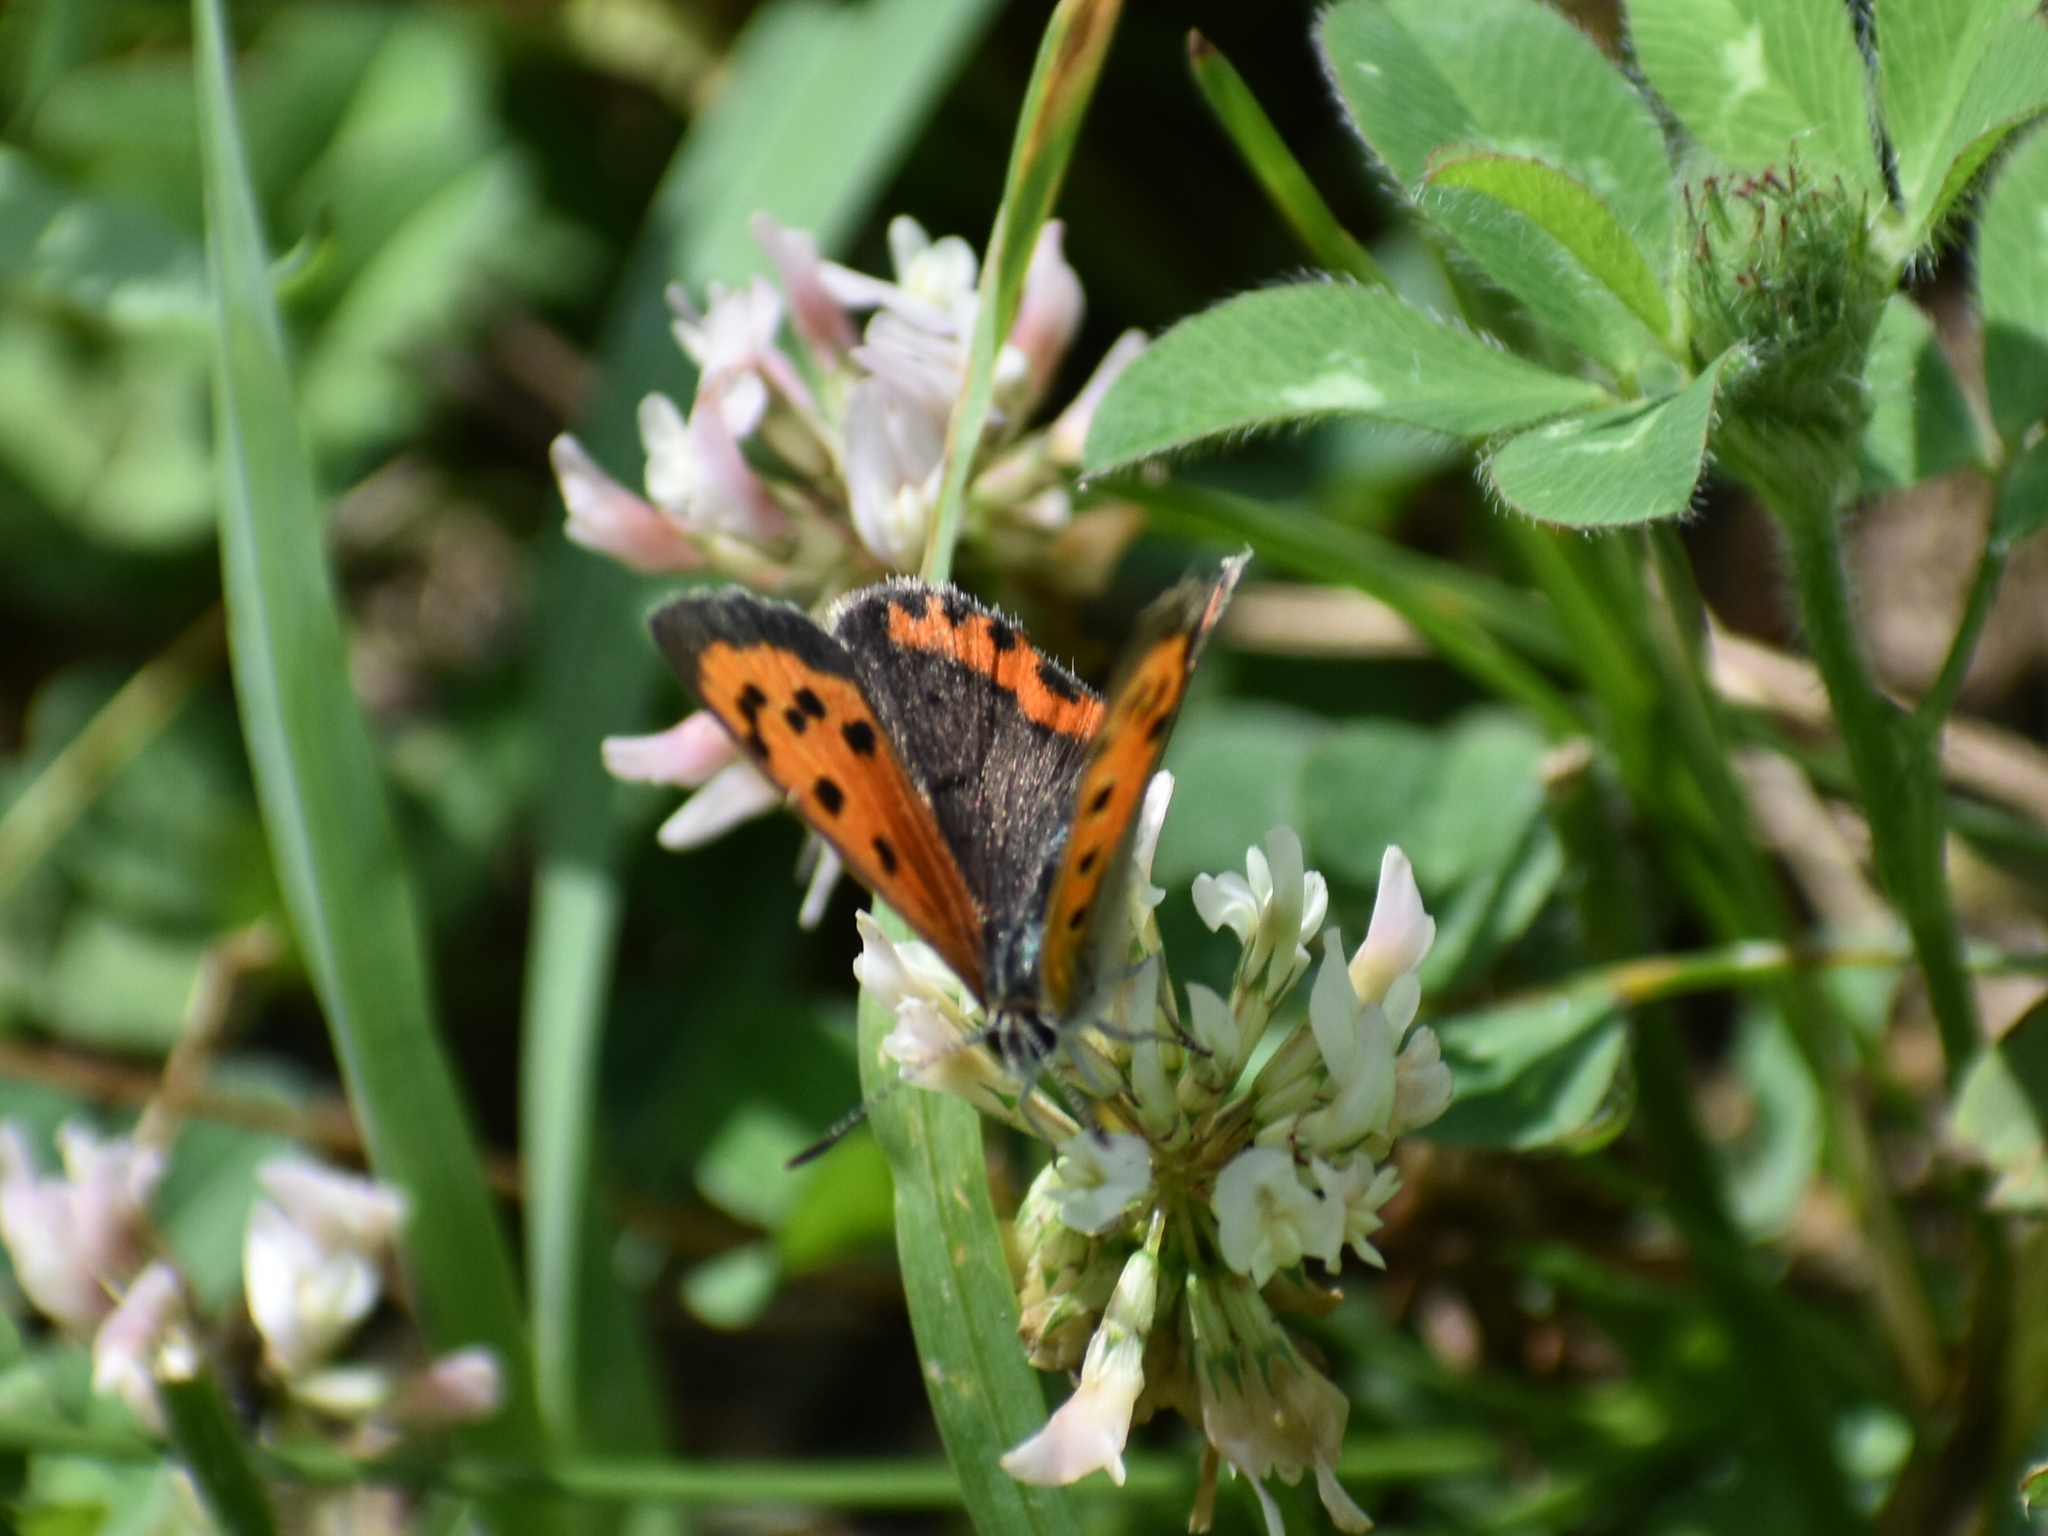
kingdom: Animalia
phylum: Arthropoda
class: Insecta
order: Lepidoptera
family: Lycaenidae
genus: Lycaena
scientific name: Lycaena hypophlaeas
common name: American copper
